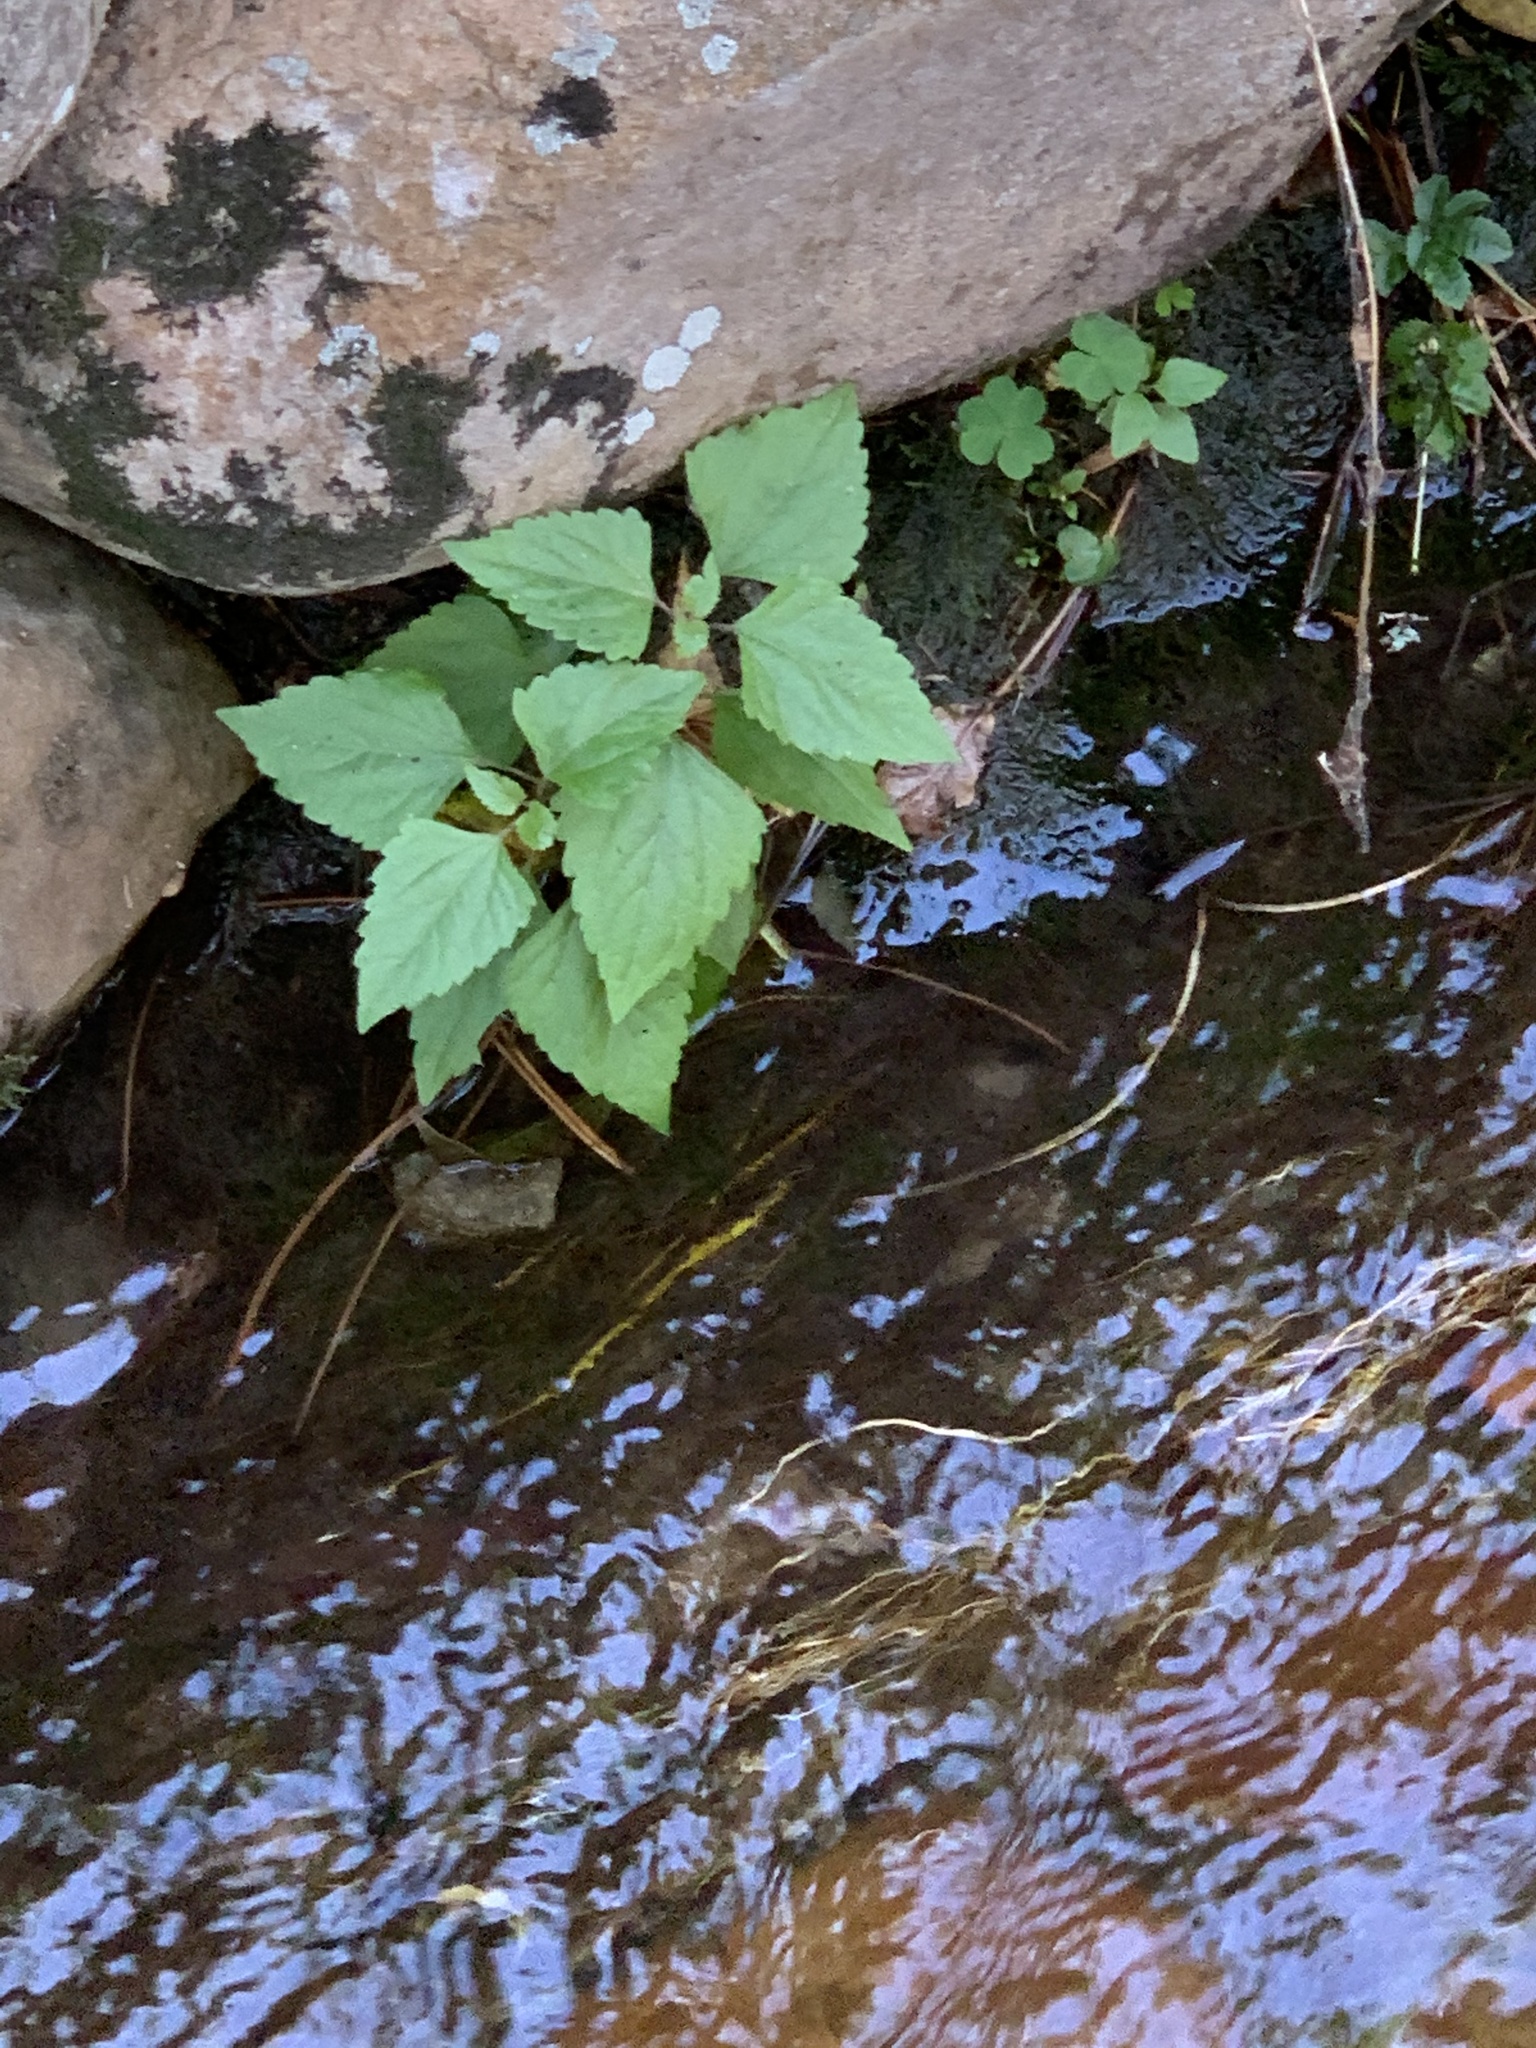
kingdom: Plantae
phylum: Tracheophyta
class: Magnoliopsida
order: Asterales
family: Asteraceae
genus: Ageratina
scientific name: Ageratina adenophora
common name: Sticky snakeroot
